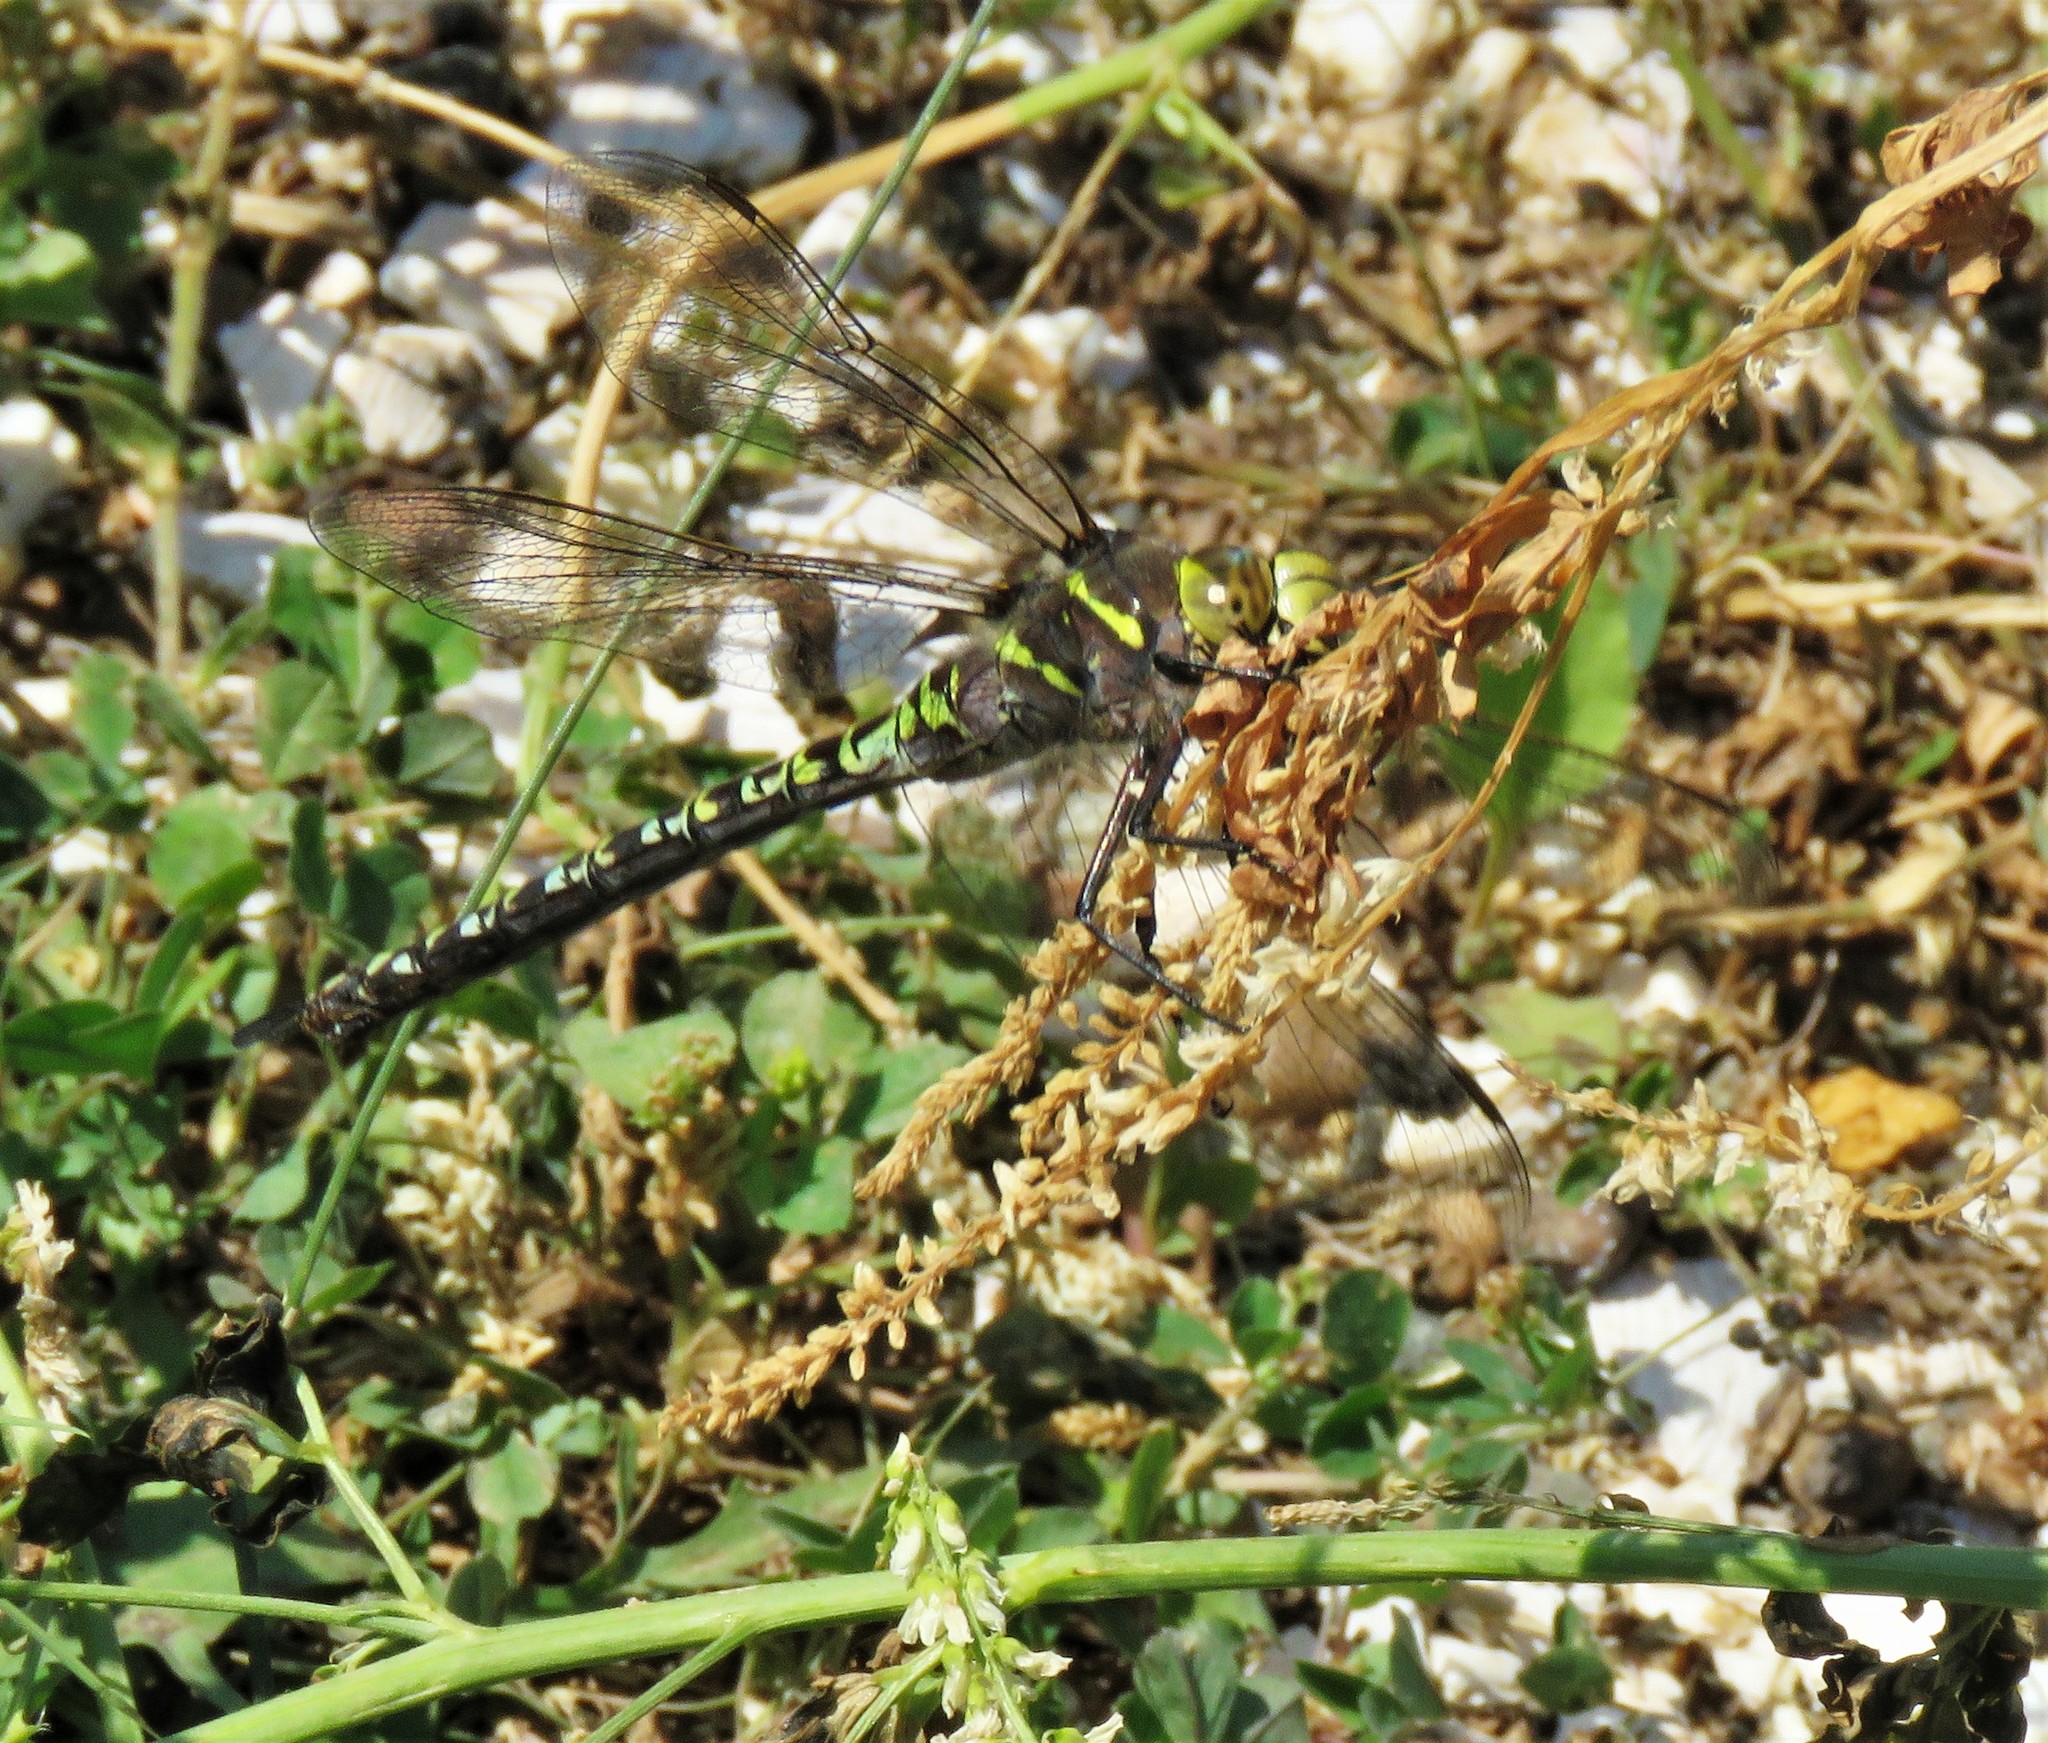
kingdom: Animalia
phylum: Arthropoda
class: Insecta
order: Odonata
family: Aeshnidae
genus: Aeshna
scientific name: Aeshna interrupta
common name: Variable darner
